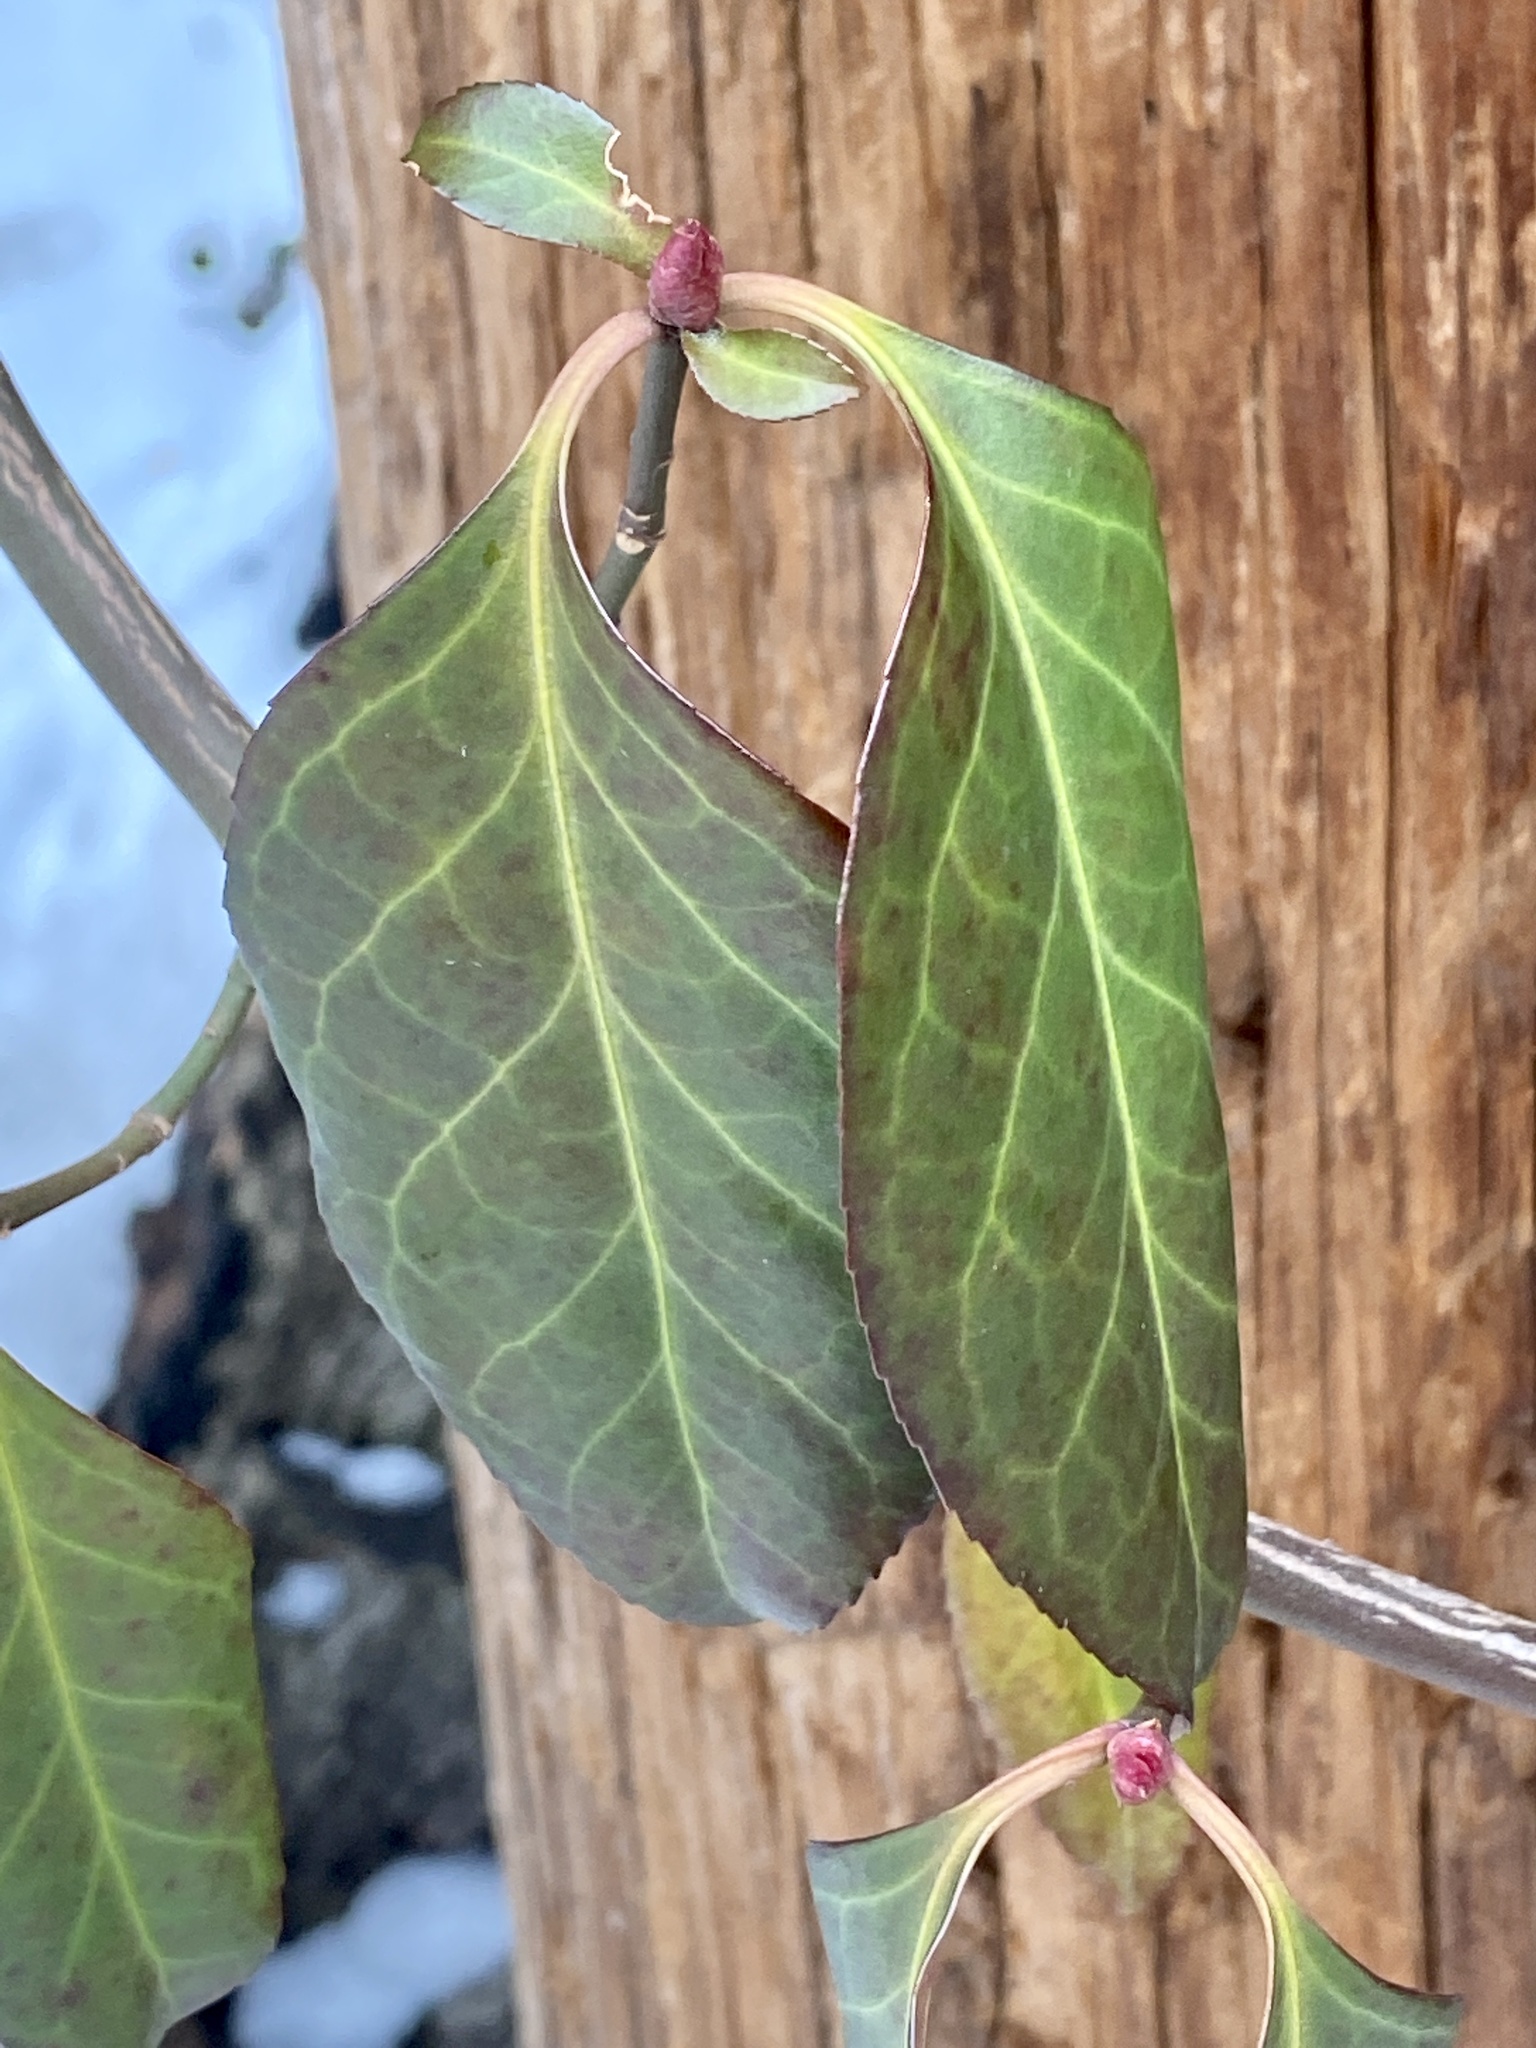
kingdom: Plantae
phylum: Tracheophyta
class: Magnoliopsida
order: Celastrales
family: Celastraceae
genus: Euonymus
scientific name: Euonymus fortunei
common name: Climbing euonymus
